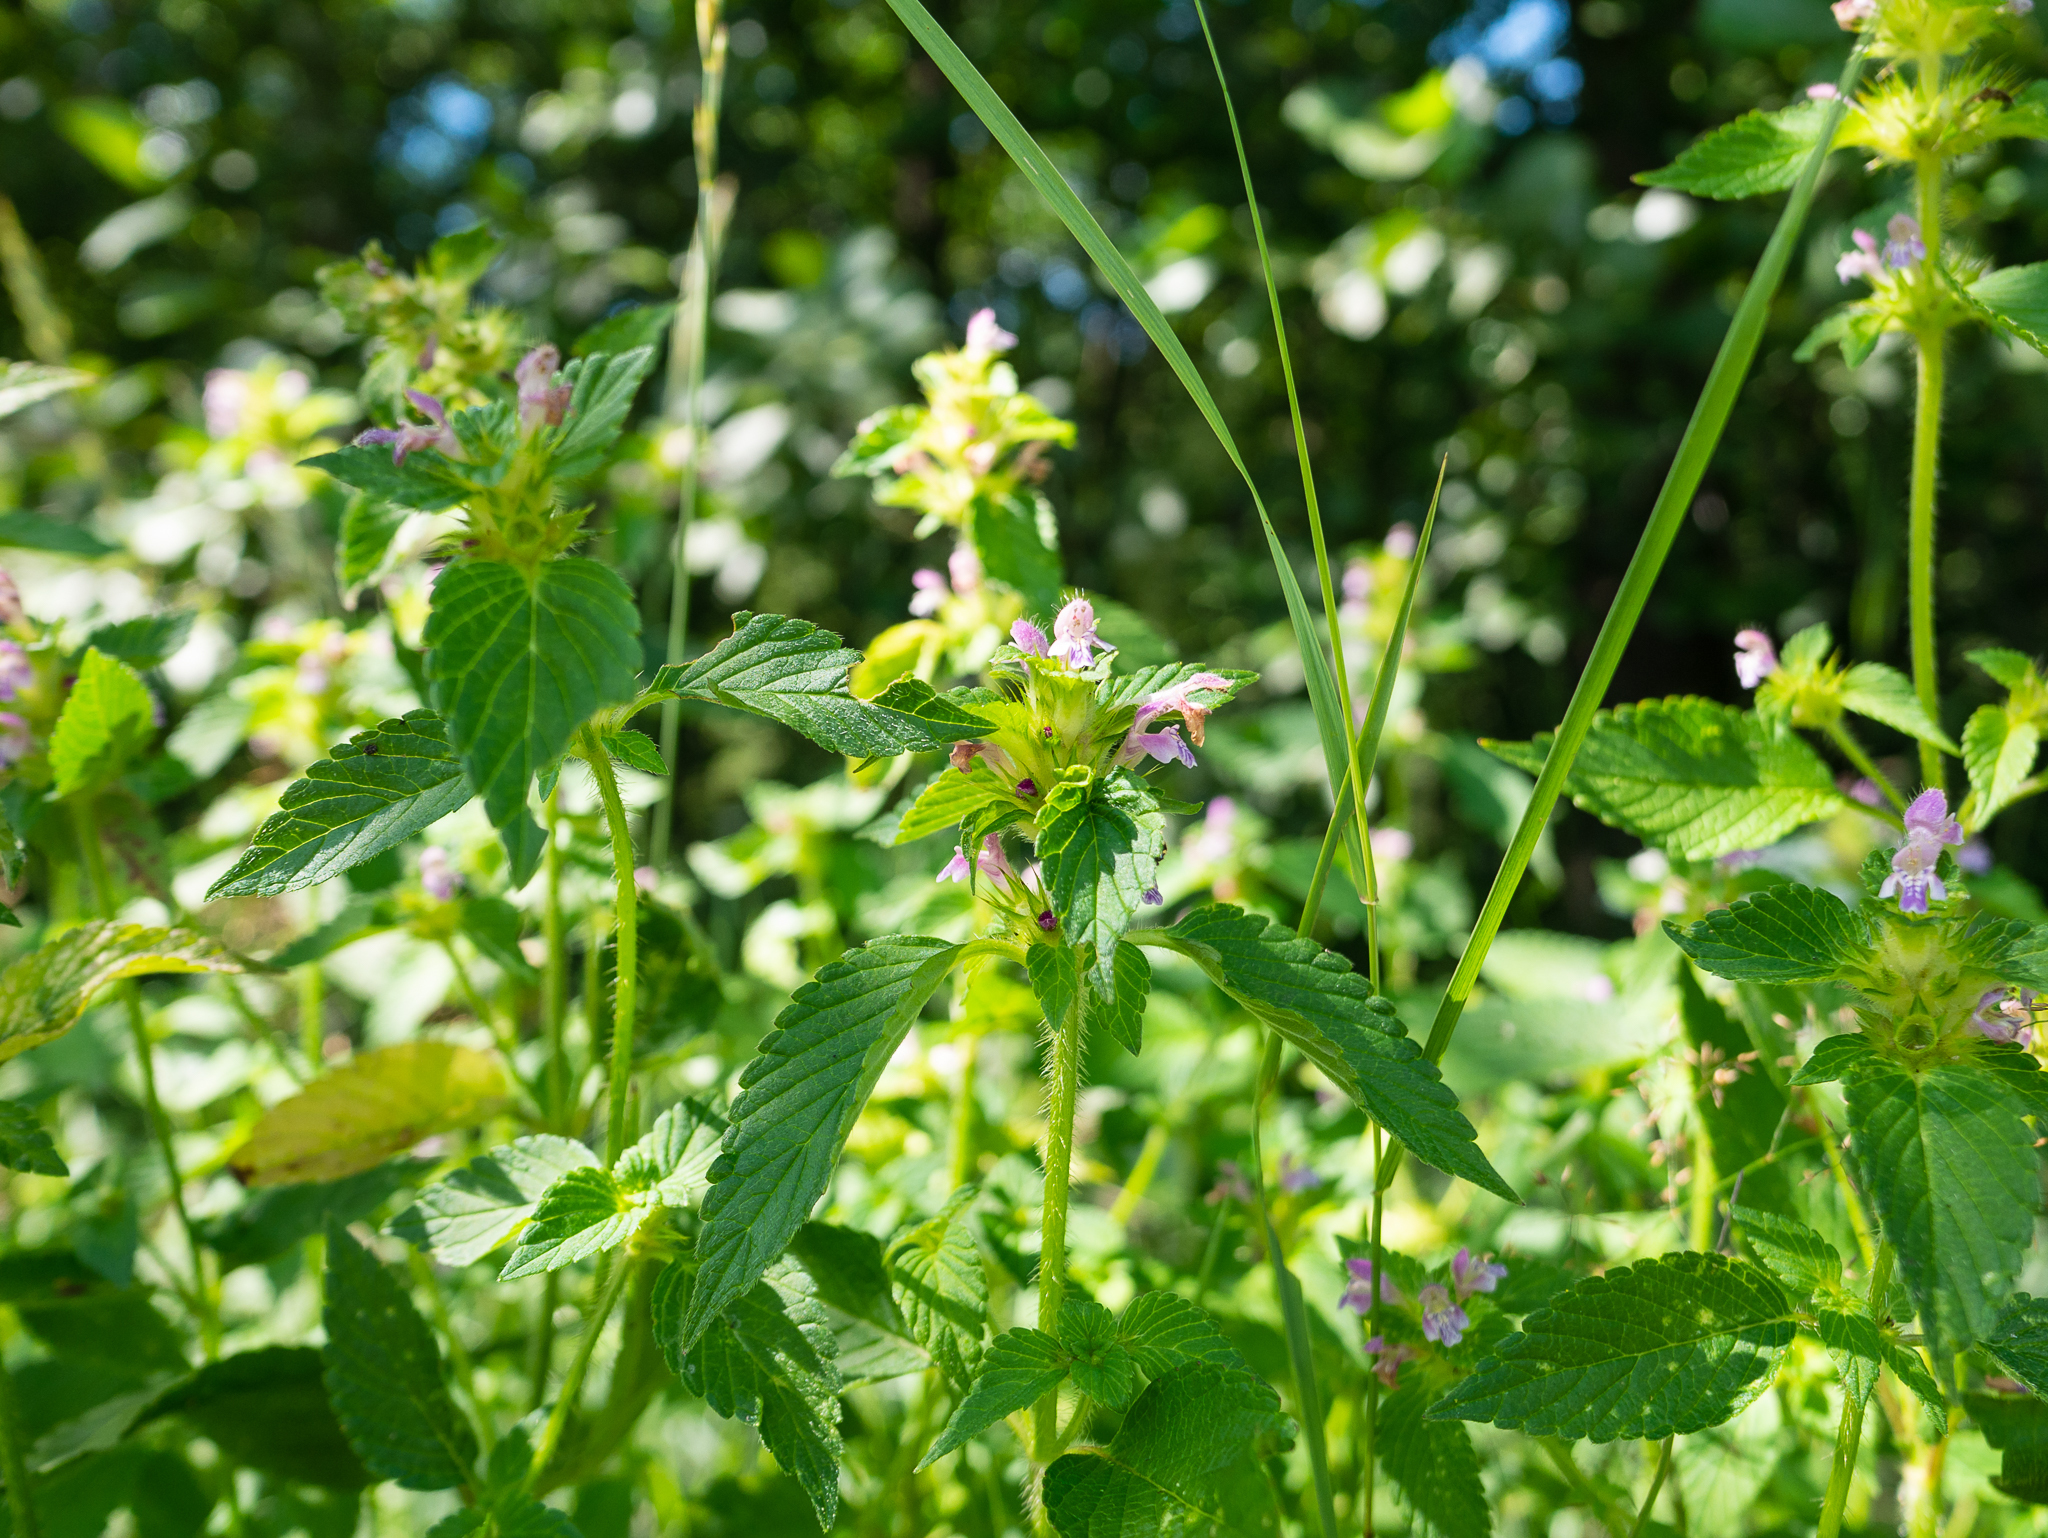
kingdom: Plantae
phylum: Tracheophyta
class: Magnoliopsida
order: Lamiales
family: Lamiaceae
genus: Galeopsis
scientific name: Galeopsis bifida
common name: Bifid hemp-nettle
